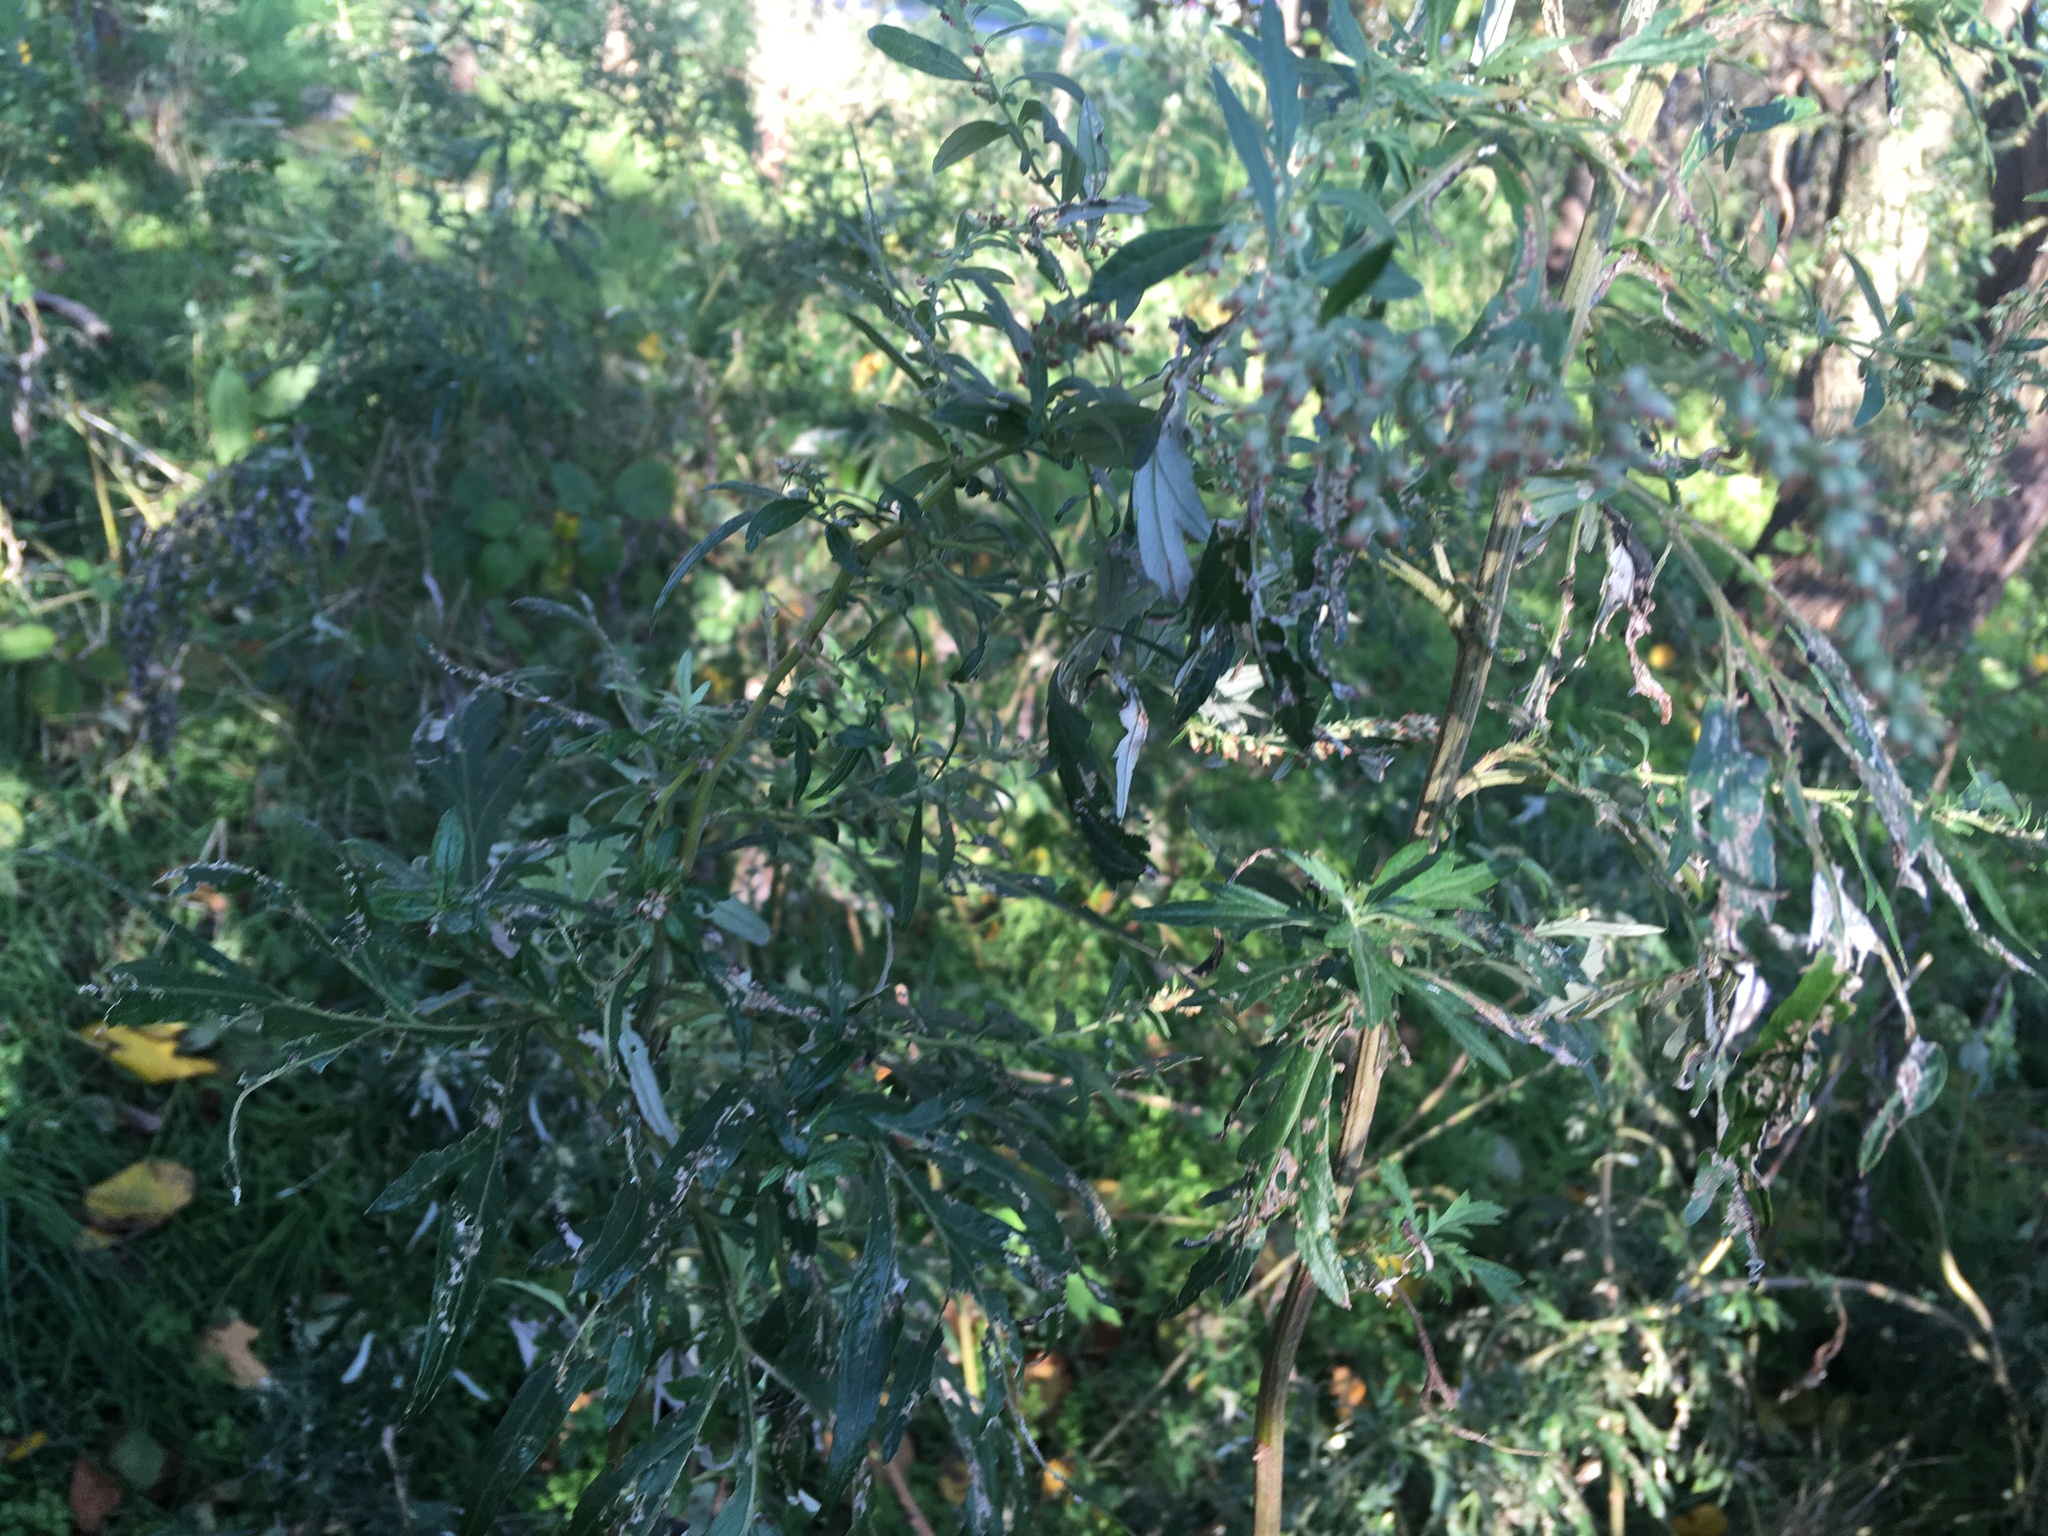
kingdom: Plantae
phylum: Tracheophyta
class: Magnoliopsida
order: Asterales
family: Asteraceae
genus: Artemisia
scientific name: Artemisia vulgaris
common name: Mugwort
